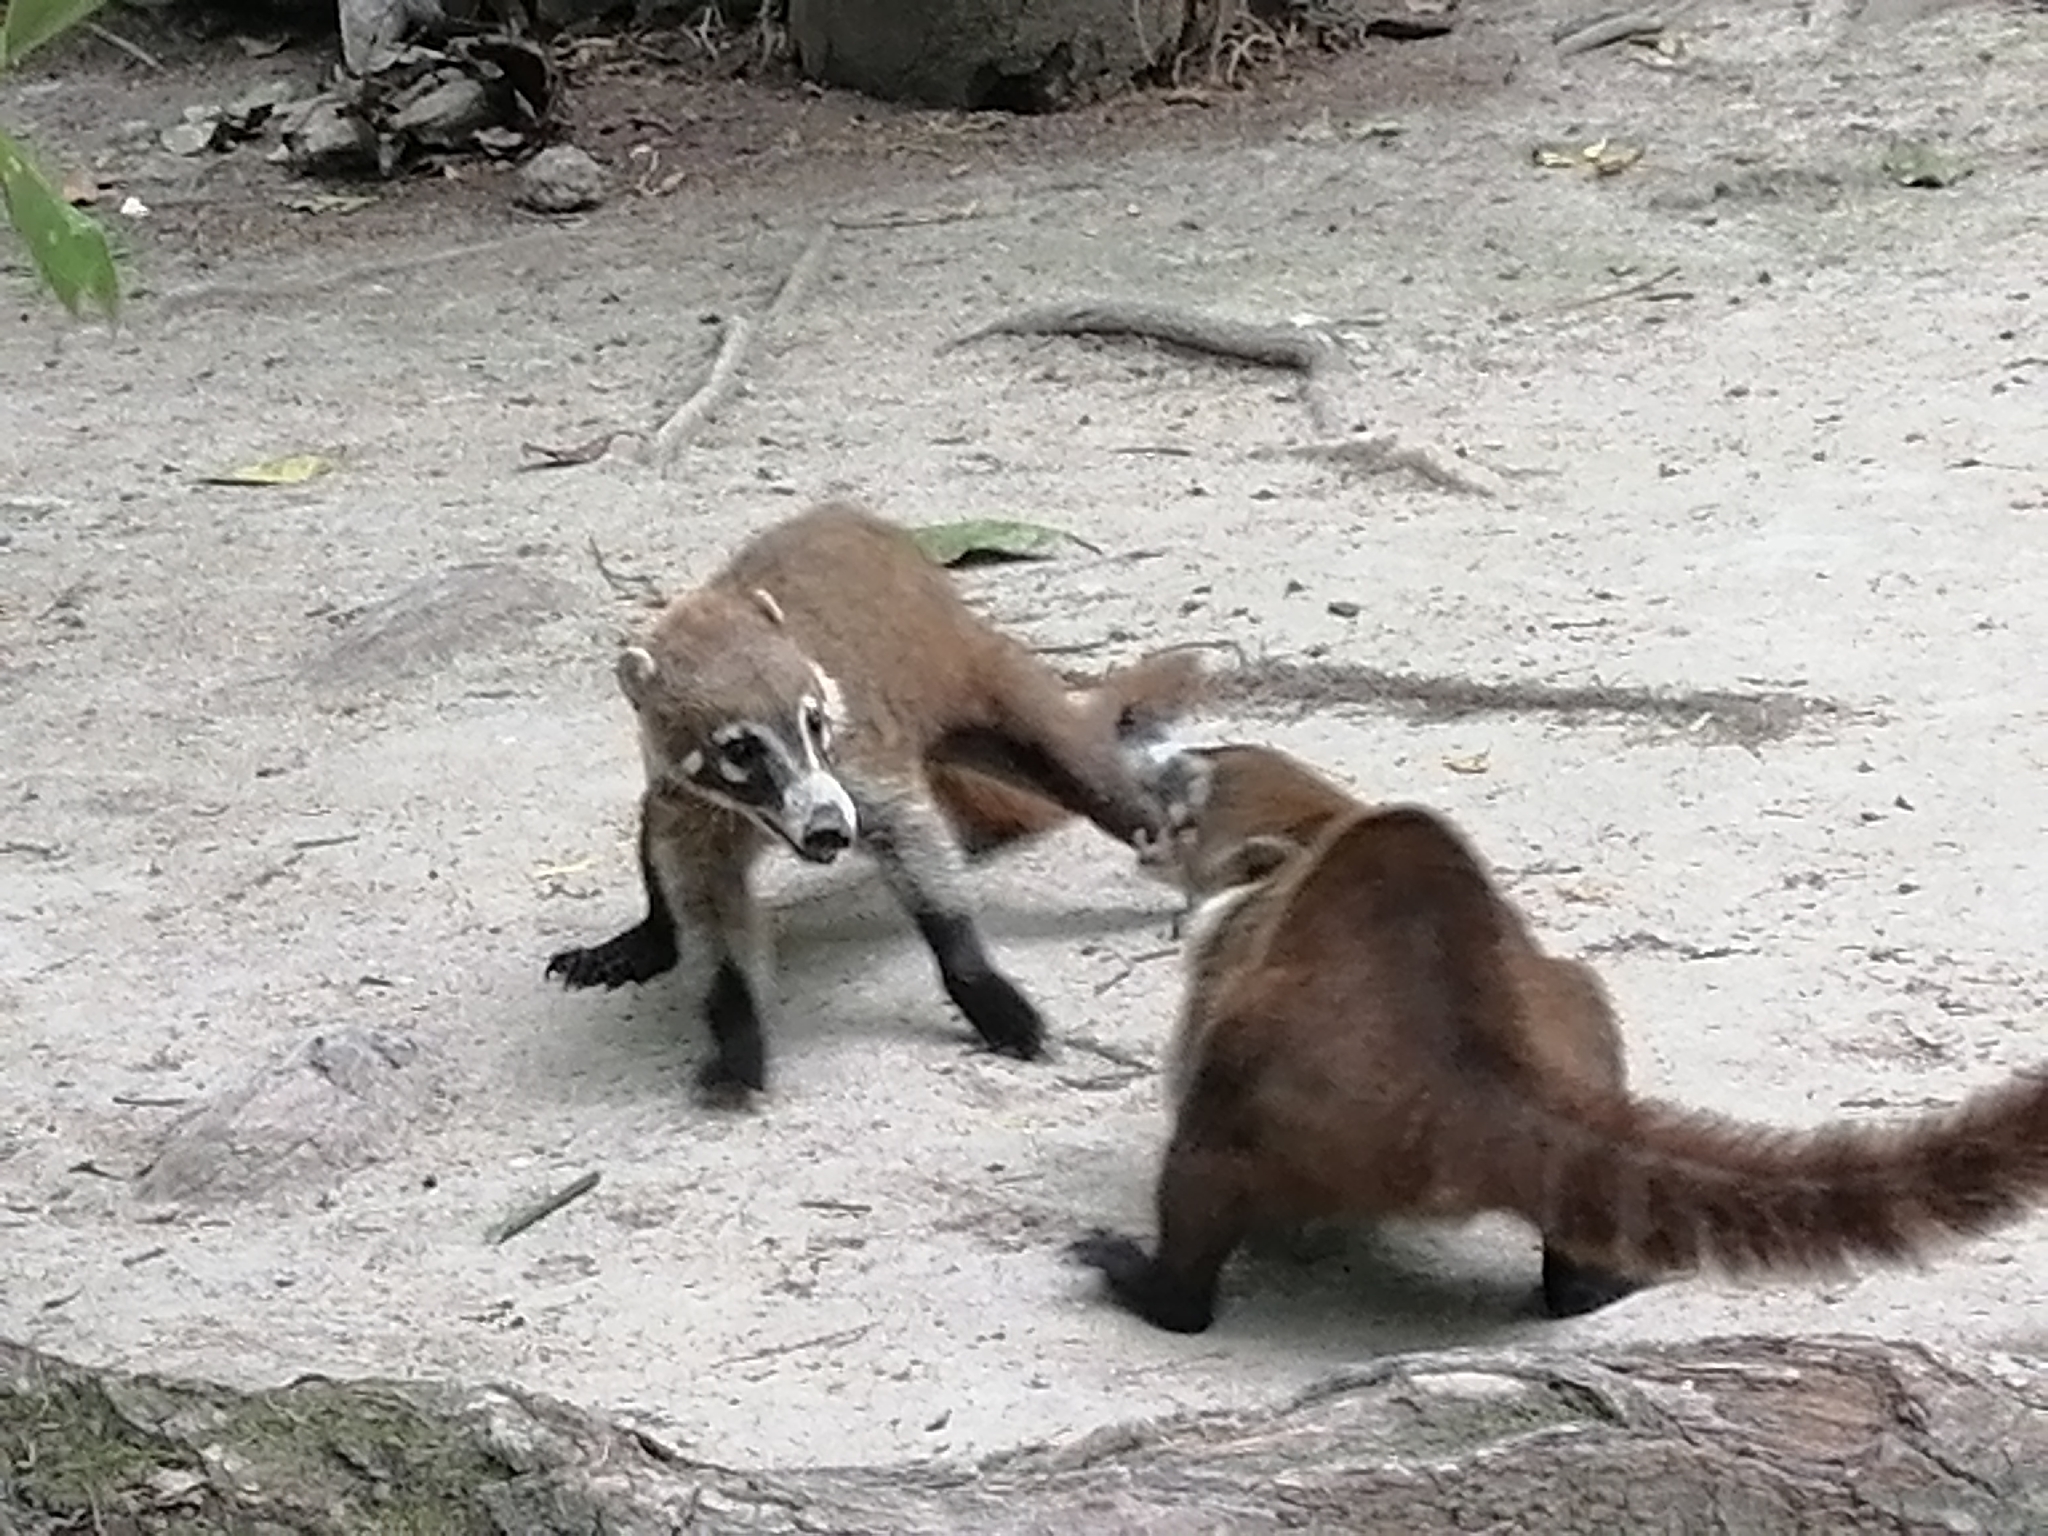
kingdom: Animalia
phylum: Chordata
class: Mammalia
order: Carnivora
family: Procyonidae
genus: Nasua
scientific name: Nasua narica
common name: White-nosed coati
